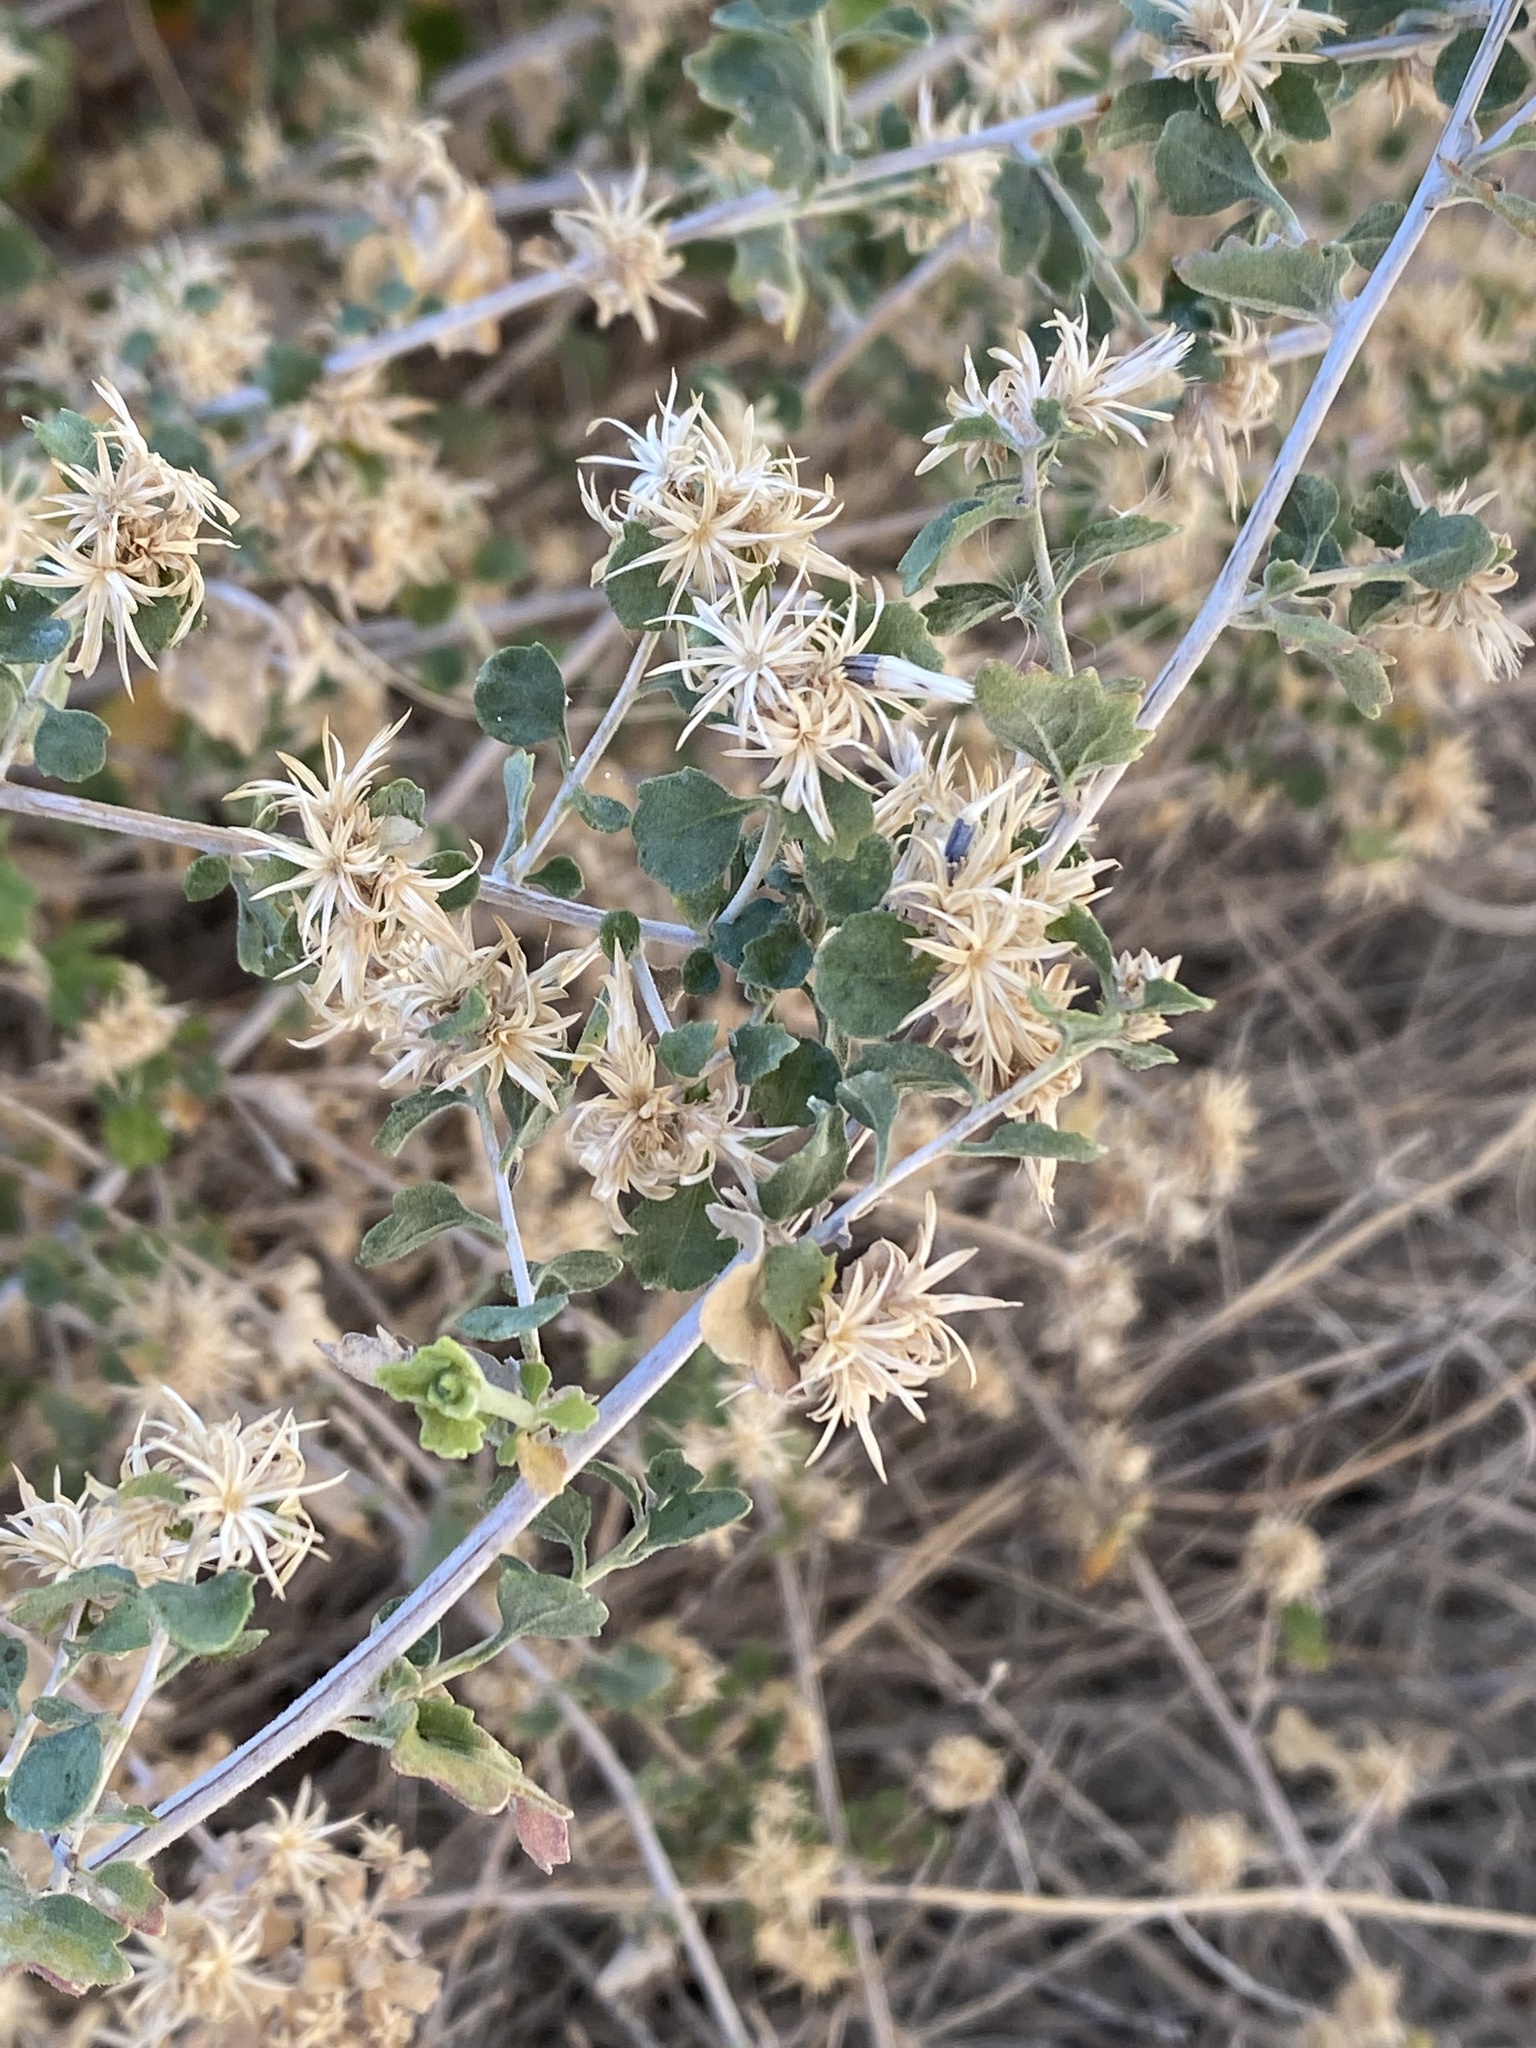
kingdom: Plantae
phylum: Tracheophyta
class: Magnoliopsida
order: Asterales
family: Asteraceae
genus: Brickellia
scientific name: Brickellia desertorum
